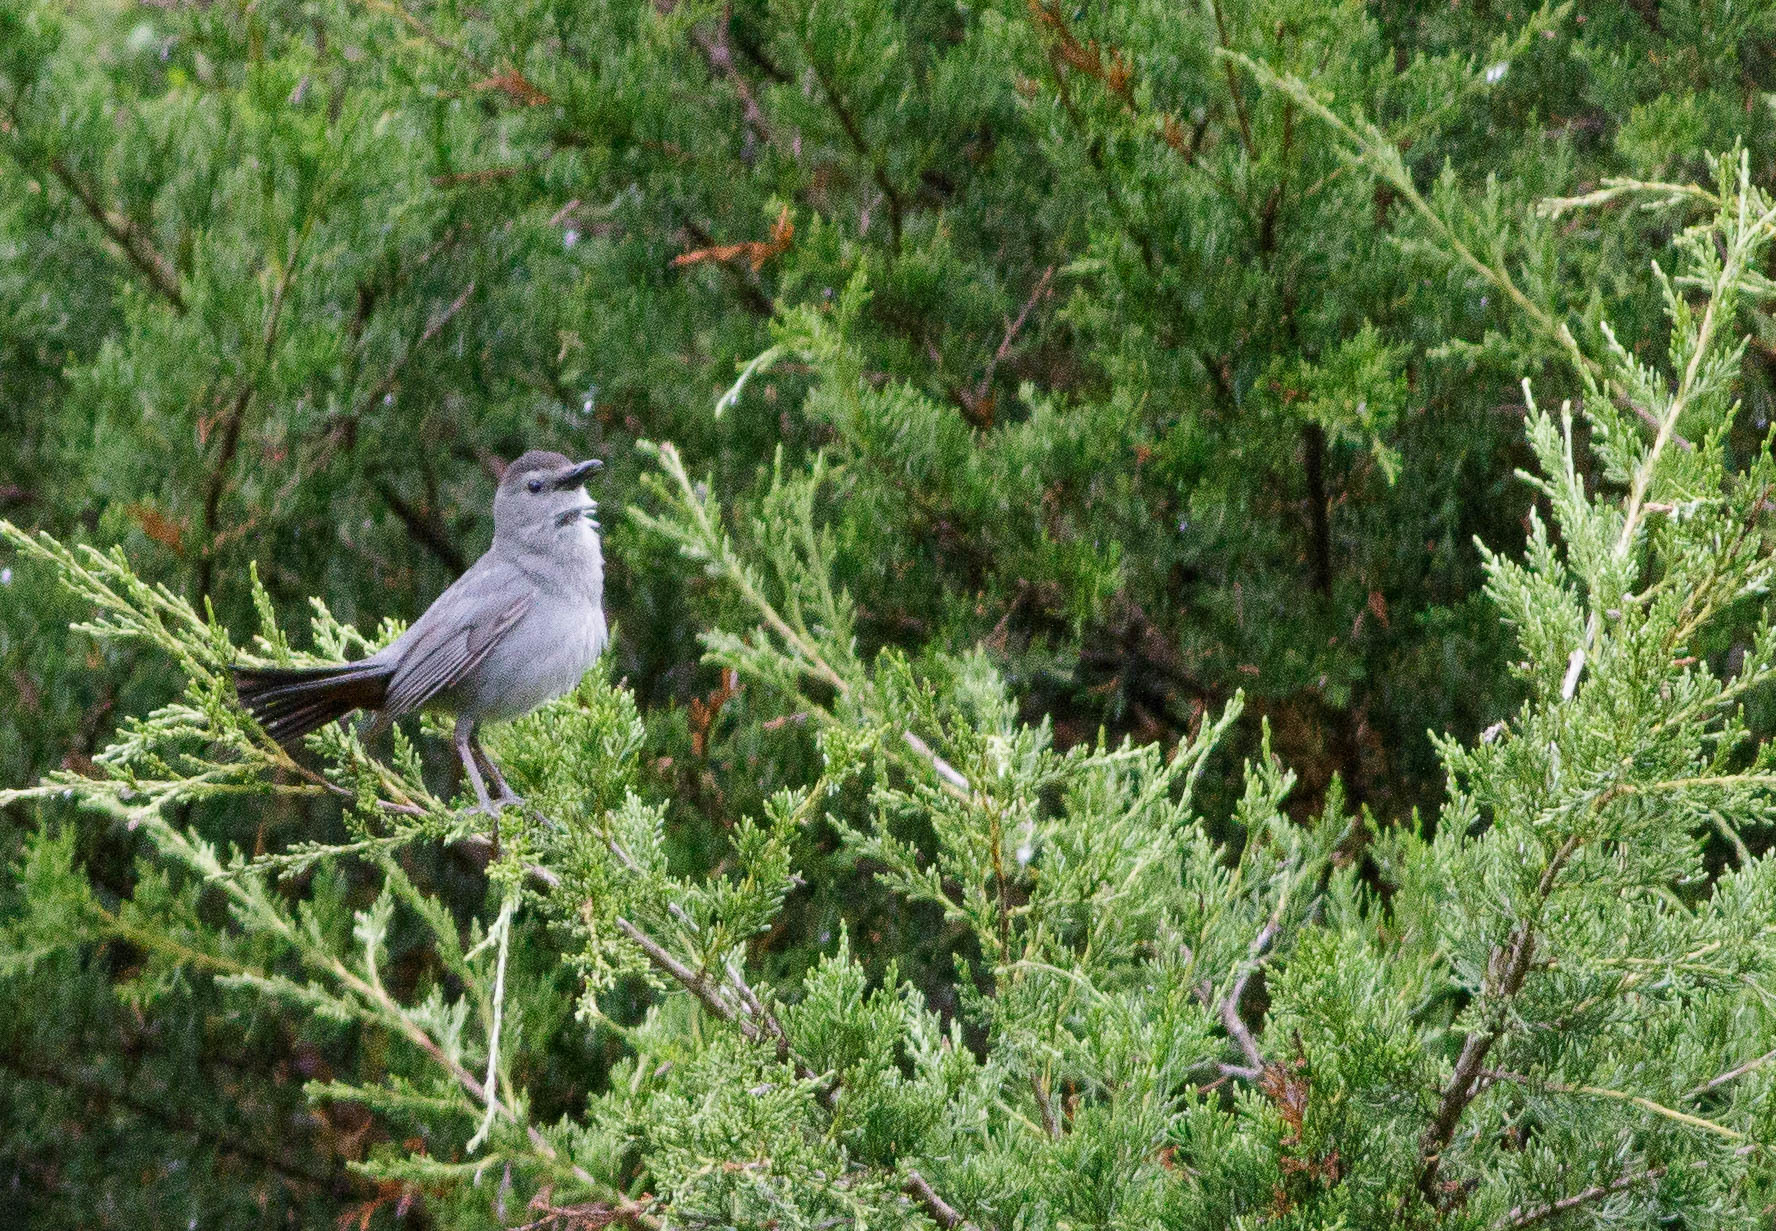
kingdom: Animalia
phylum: Chordata
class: Aves
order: Passeriformes
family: Mimidae
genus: Dumetella
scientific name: Dumetella carolinensis
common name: Gray catbird
